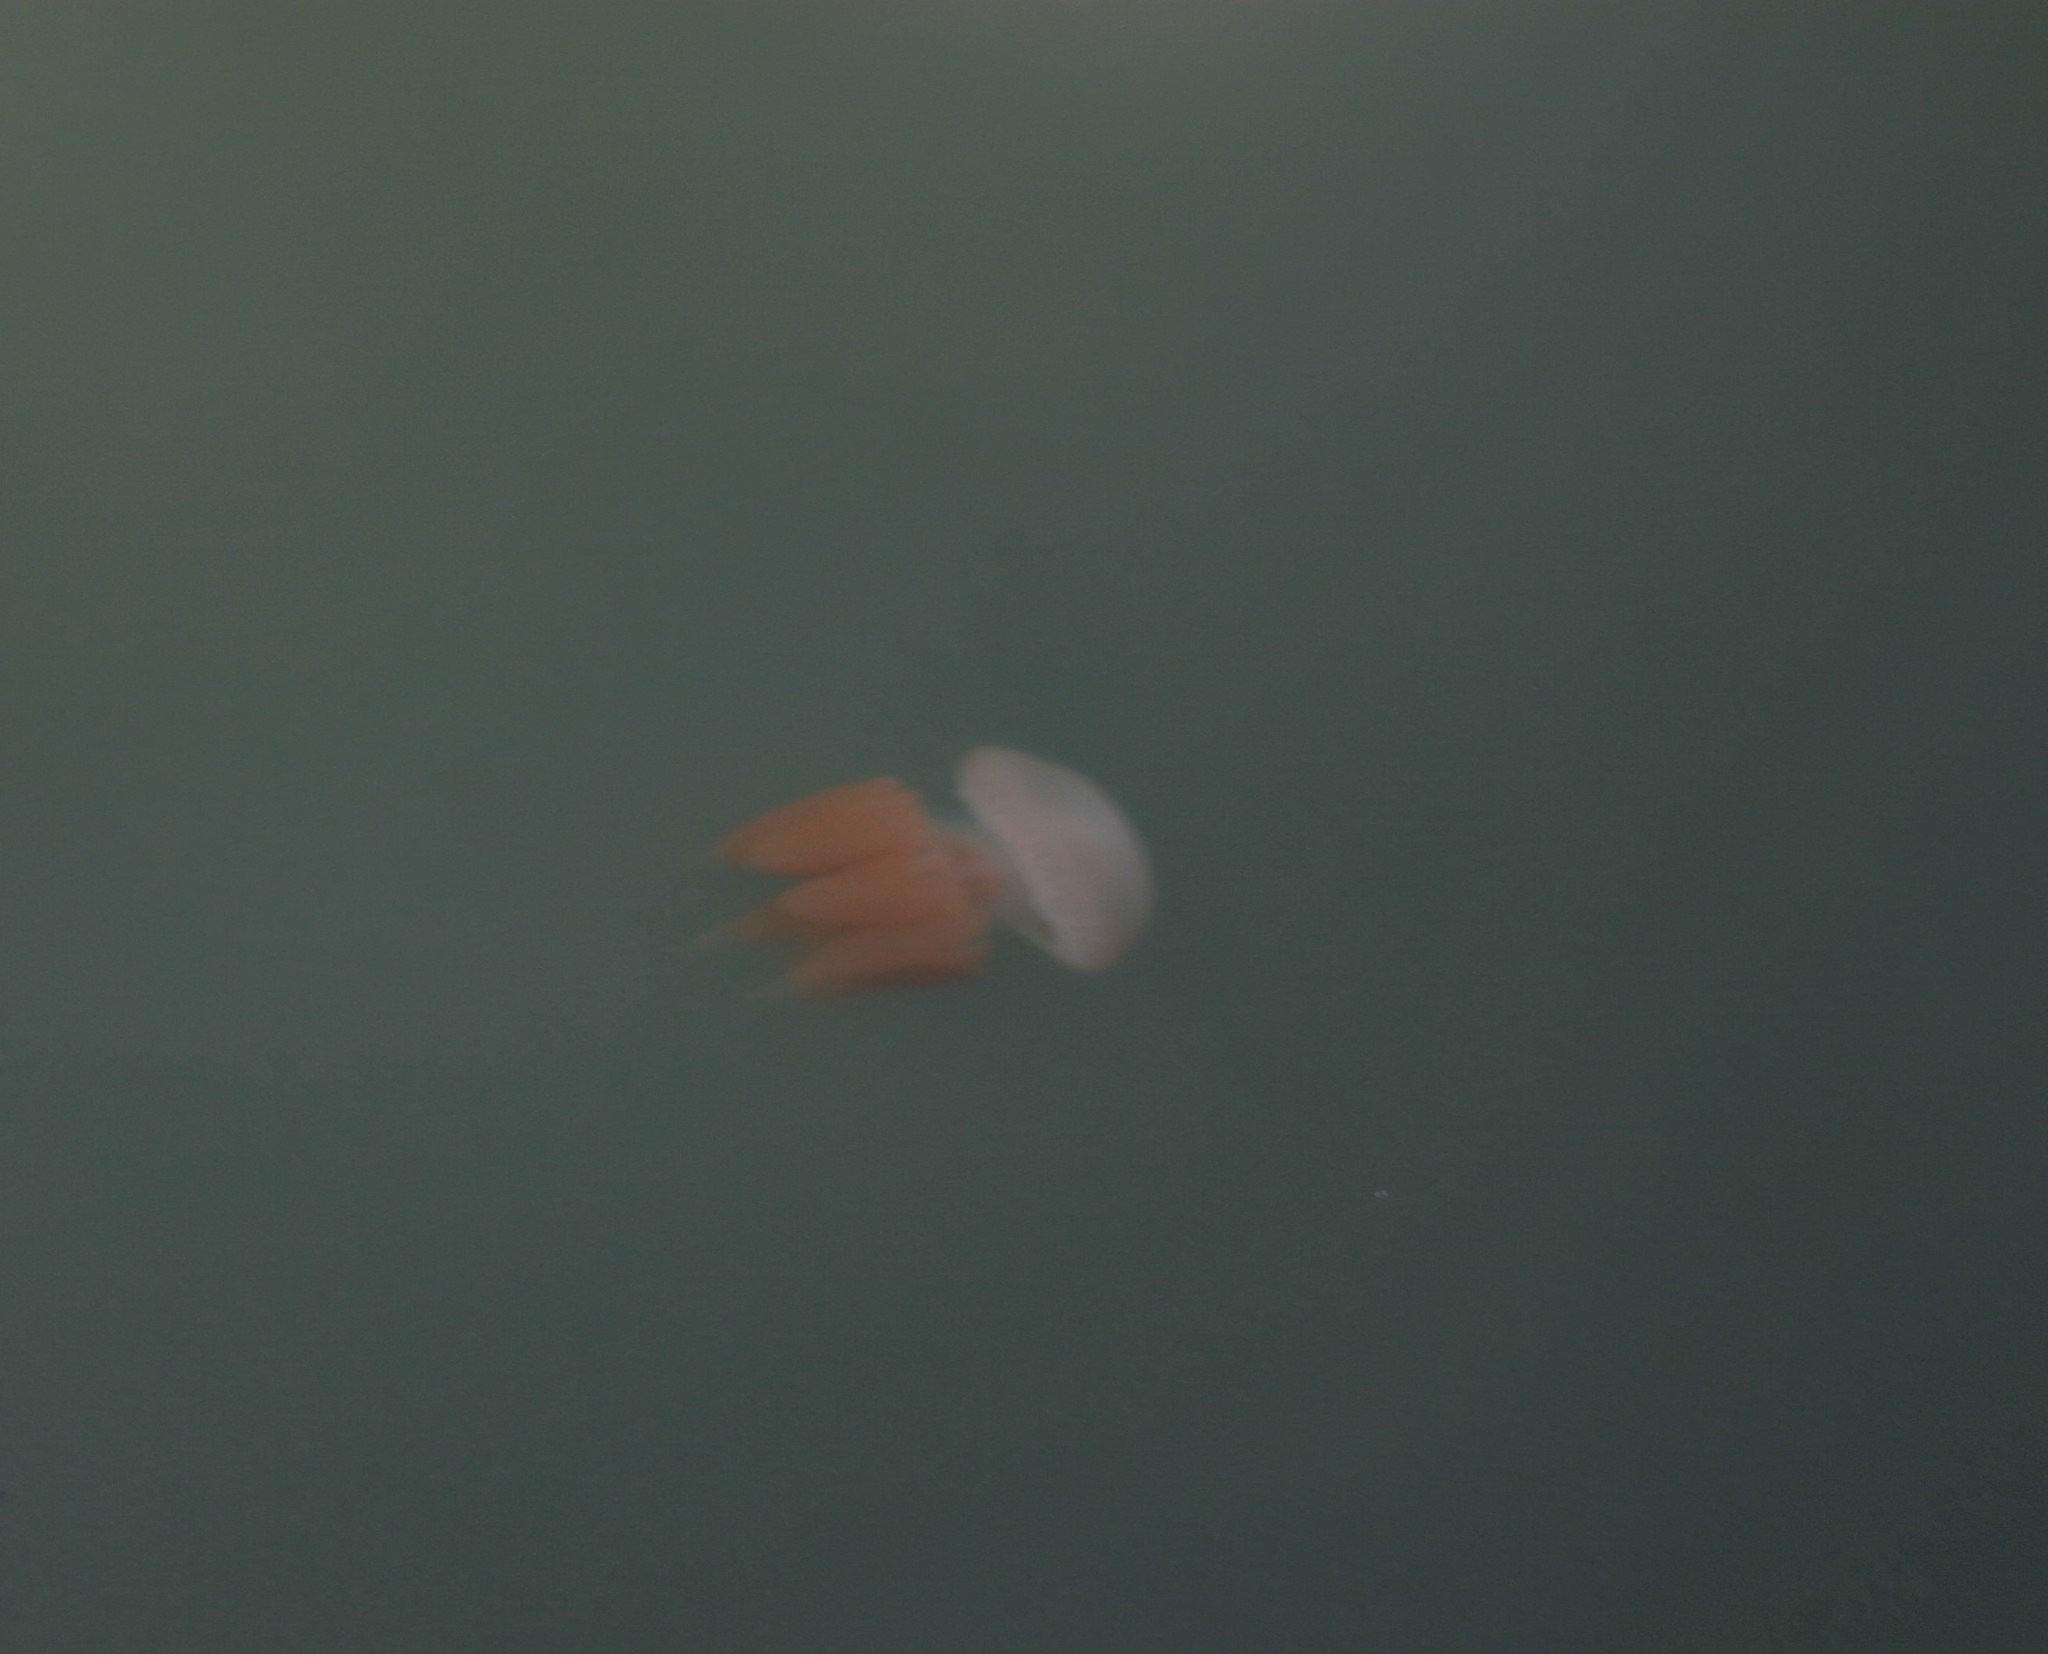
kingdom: Animalia
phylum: Cnidaria
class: Scyphozoa
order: Rhizostomeae
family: Catostylidae
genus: Catostylus
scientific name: Catostylus tagi
